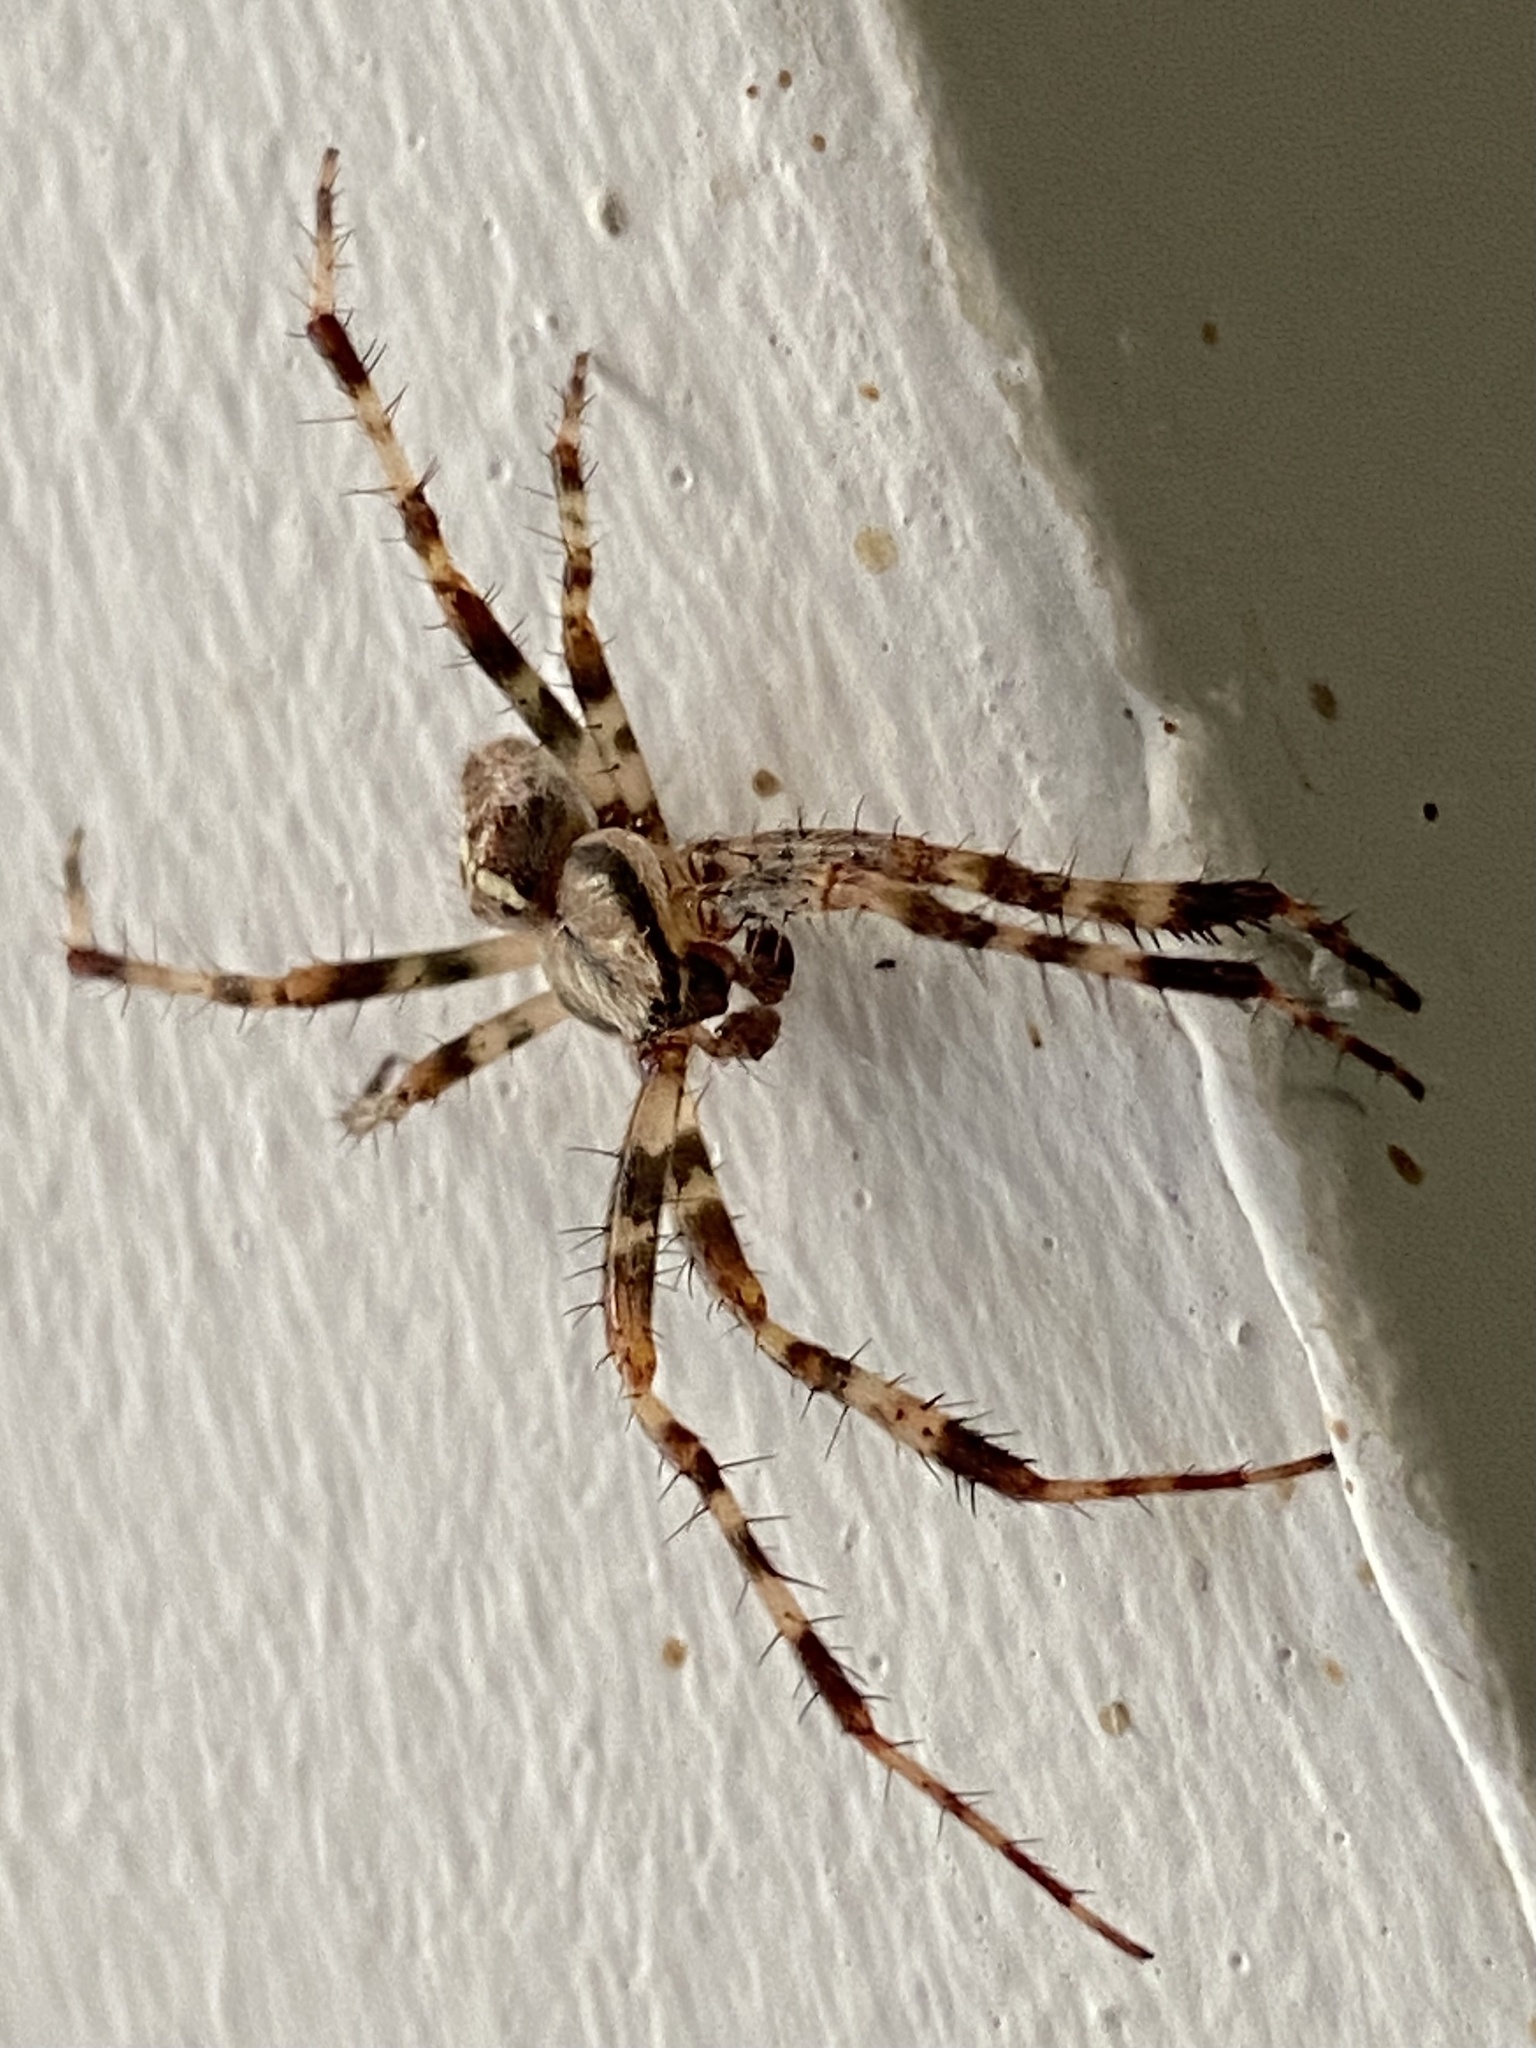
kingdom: Animalia
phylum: Arthropoda
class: Arachnida
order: Araneae
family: Araneidae
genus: Araneus
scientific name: Araneus diadematus
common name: Cross orbweaver
